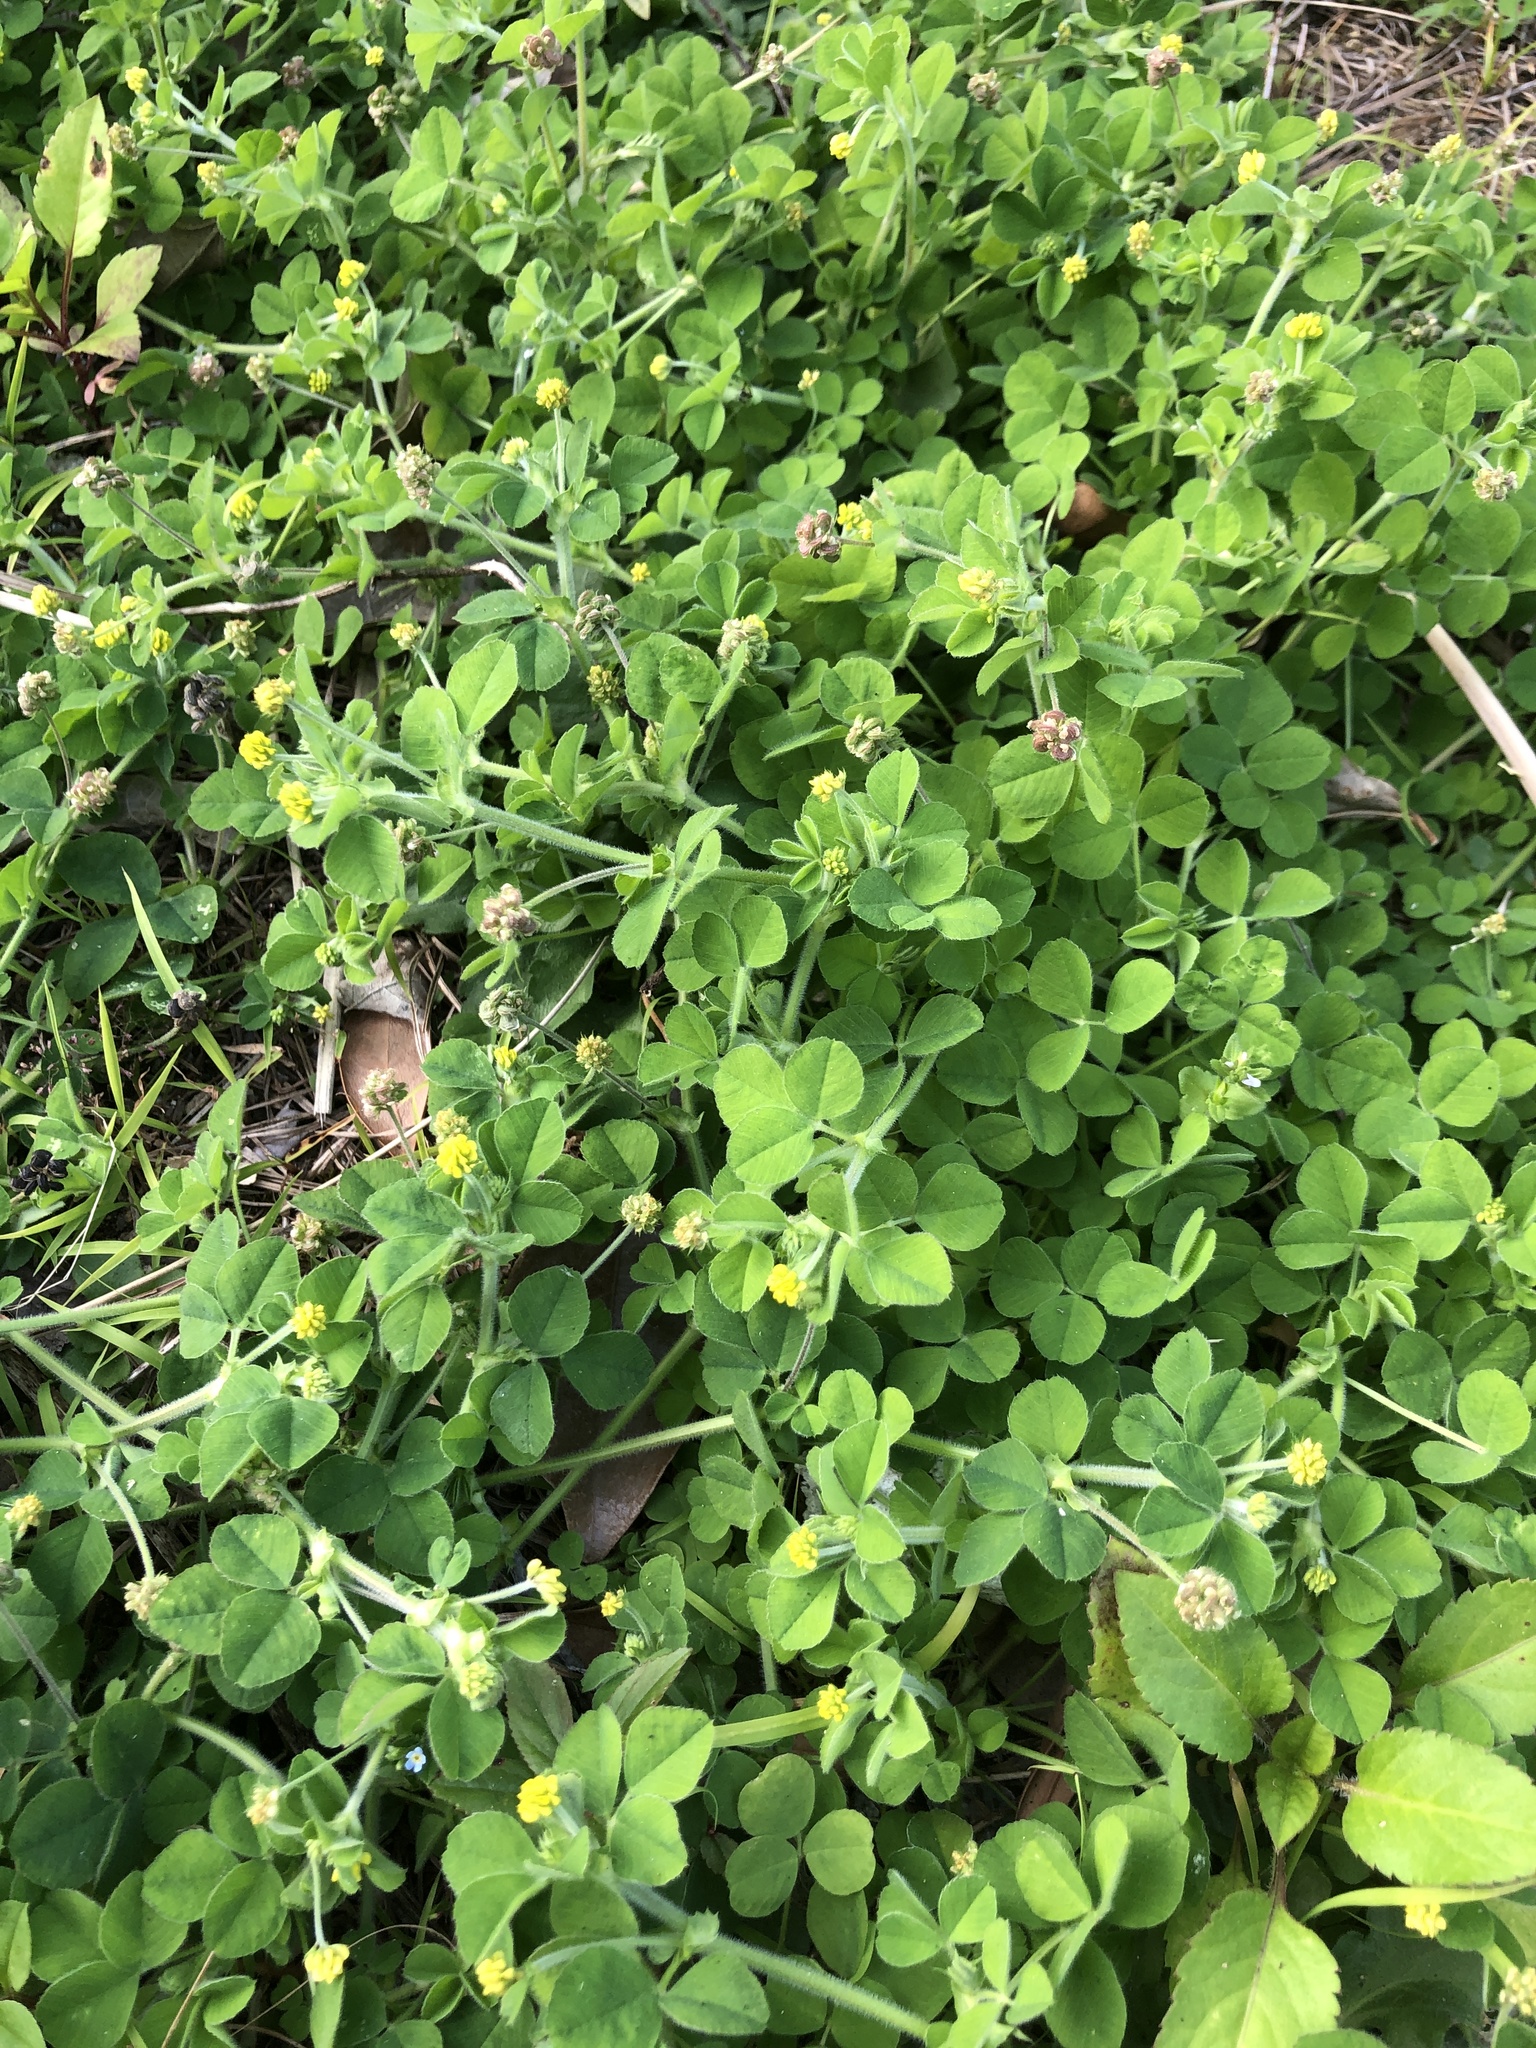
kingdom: Plantae
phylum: Tracheophyta
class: Magnoliopsida
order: Fabales
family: Fabaceae
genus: Medicago
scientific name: Medicago lupulina
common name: Black medick
